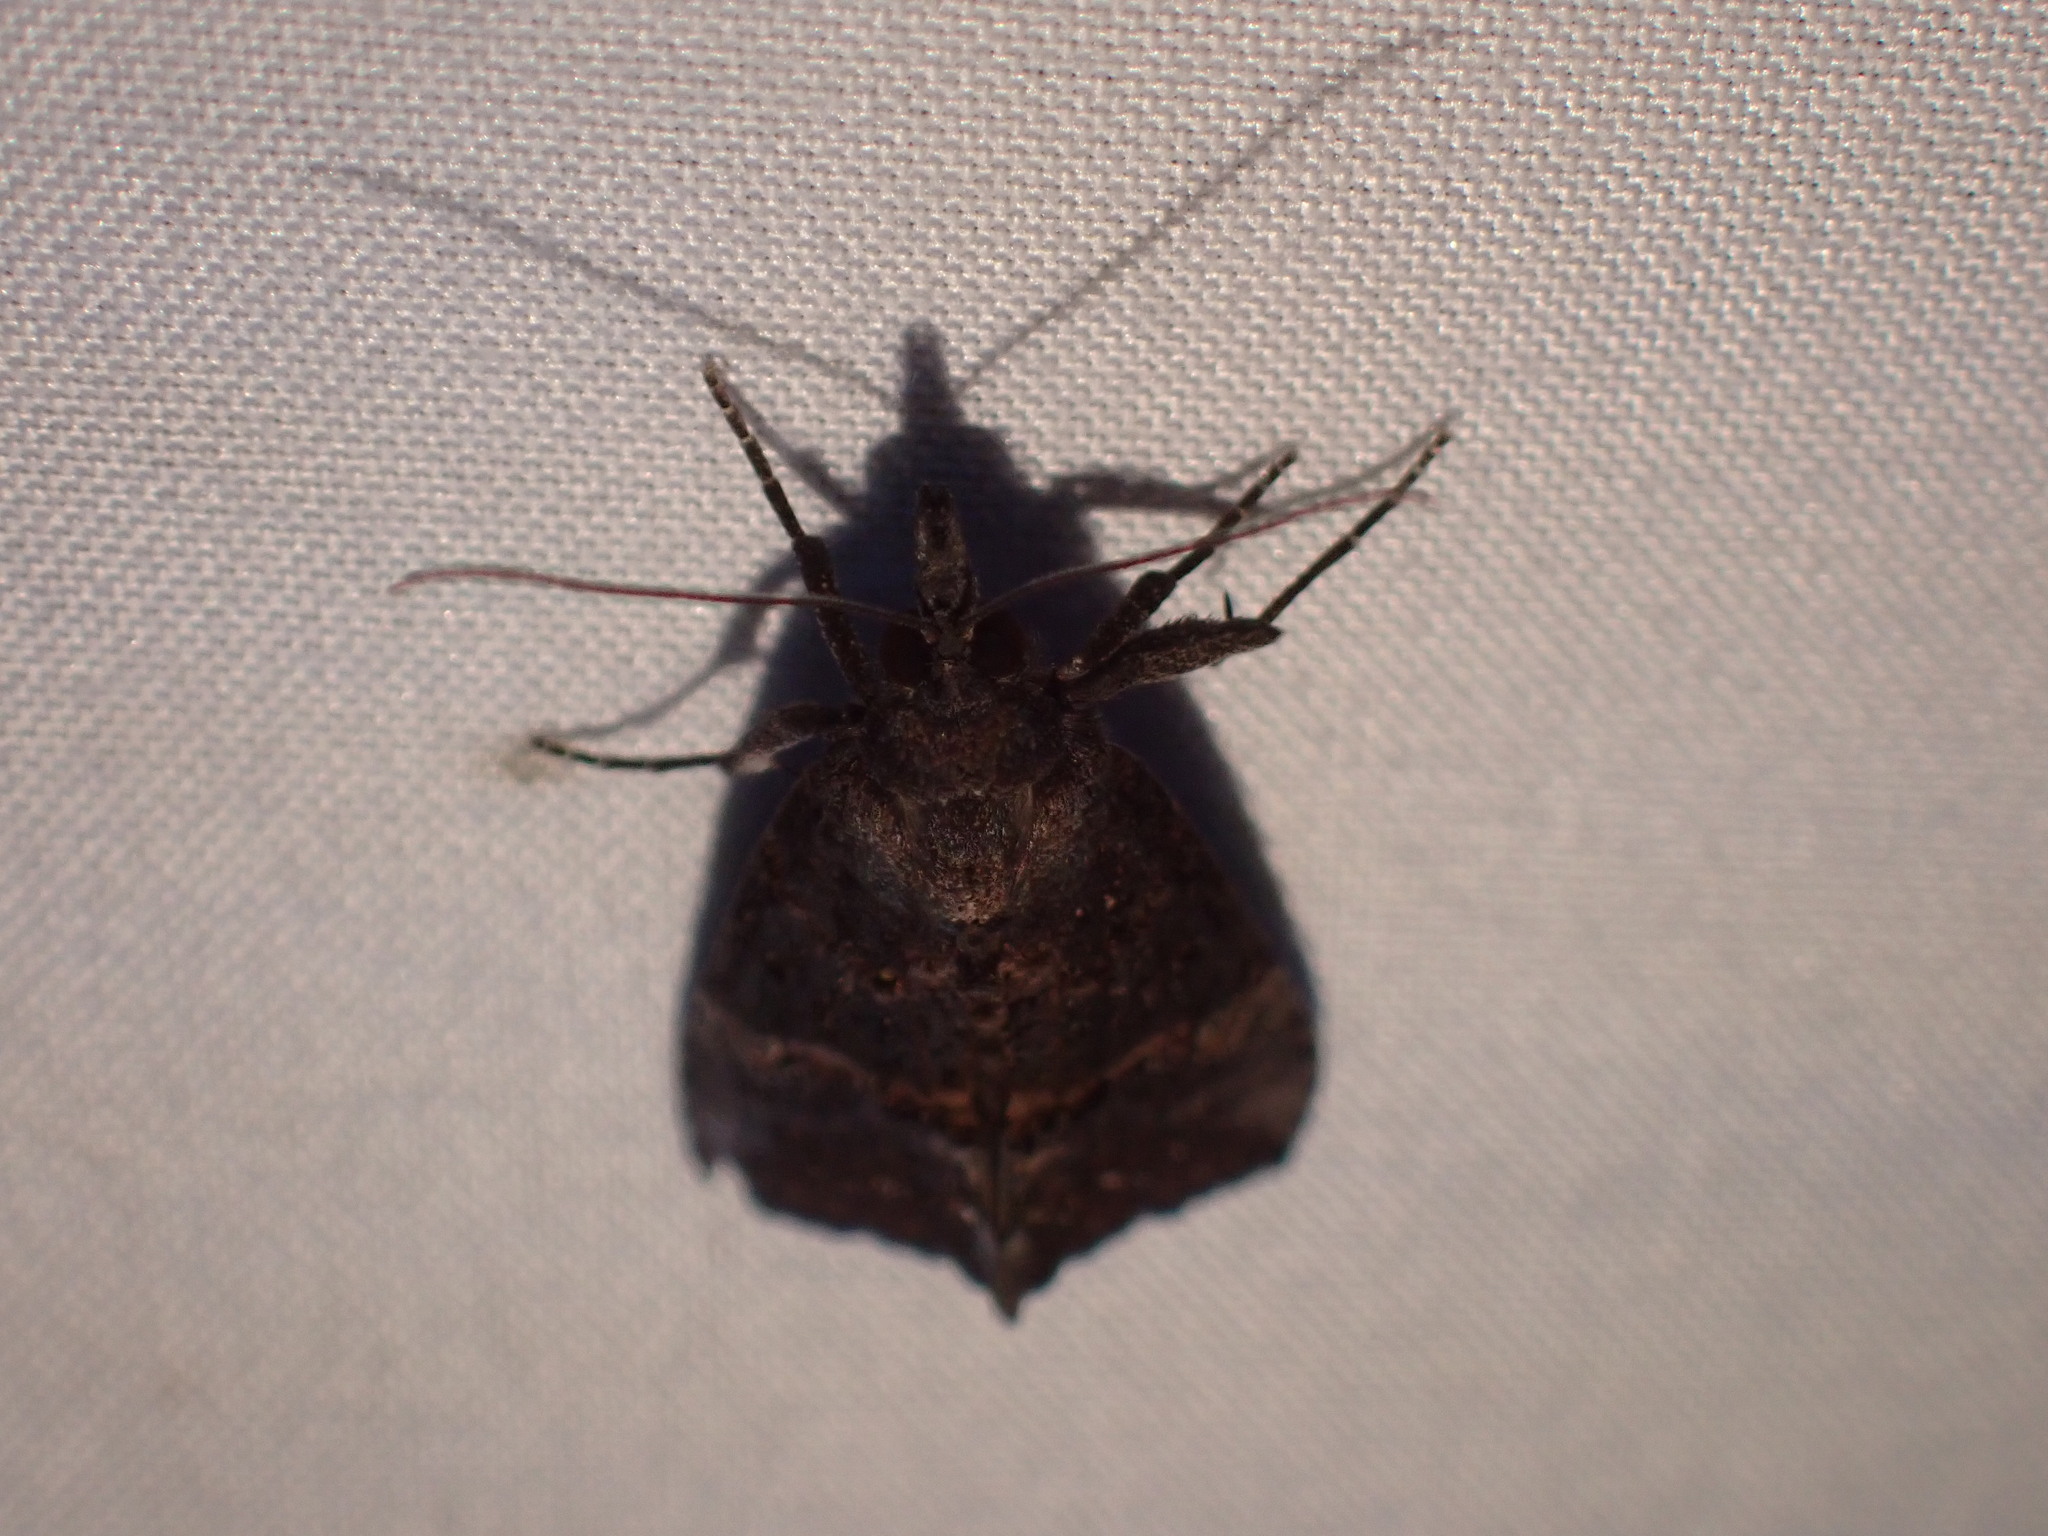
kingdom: Animalia
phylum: Arthropoda
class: Insecta
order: Lepidoptera
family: Erebidae
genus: Hypena
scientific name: Hypena scabra
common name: Green cloverworm
